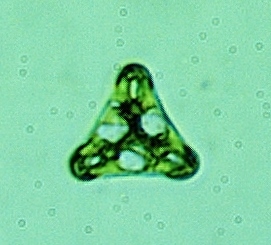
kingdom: Plantae
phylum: Charophyta
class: Conjugatophyceae
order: Desmidiales
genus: Desmidium
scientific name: Desmidium swartzii
